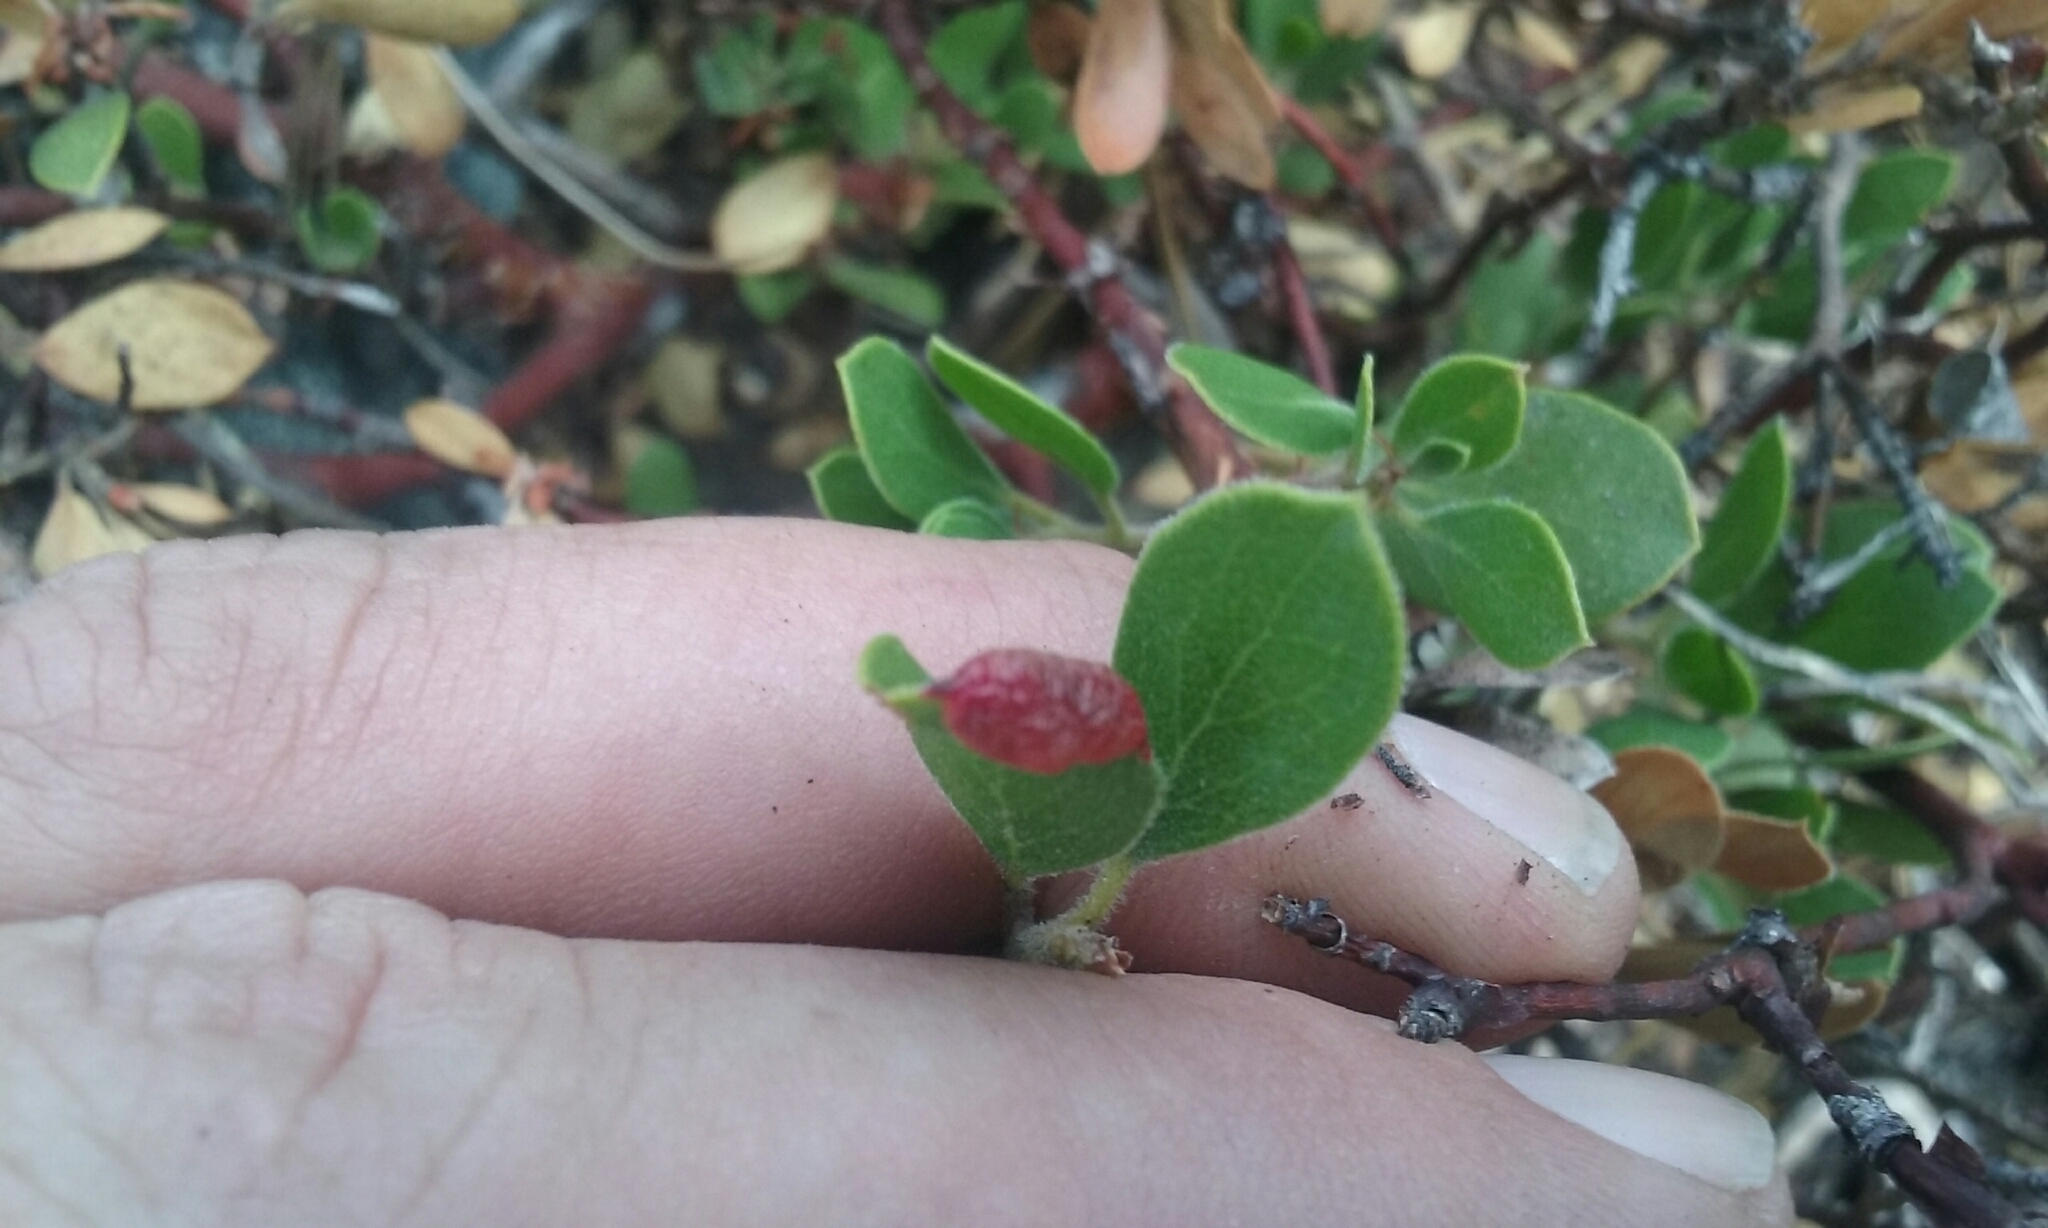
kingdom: Animalia
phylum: Arthropoda
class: Insecta
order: Hemiptera
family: Aphididae
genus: Tamalia
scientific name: Tamalia coweni
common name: Manzanita leafgall aphid
